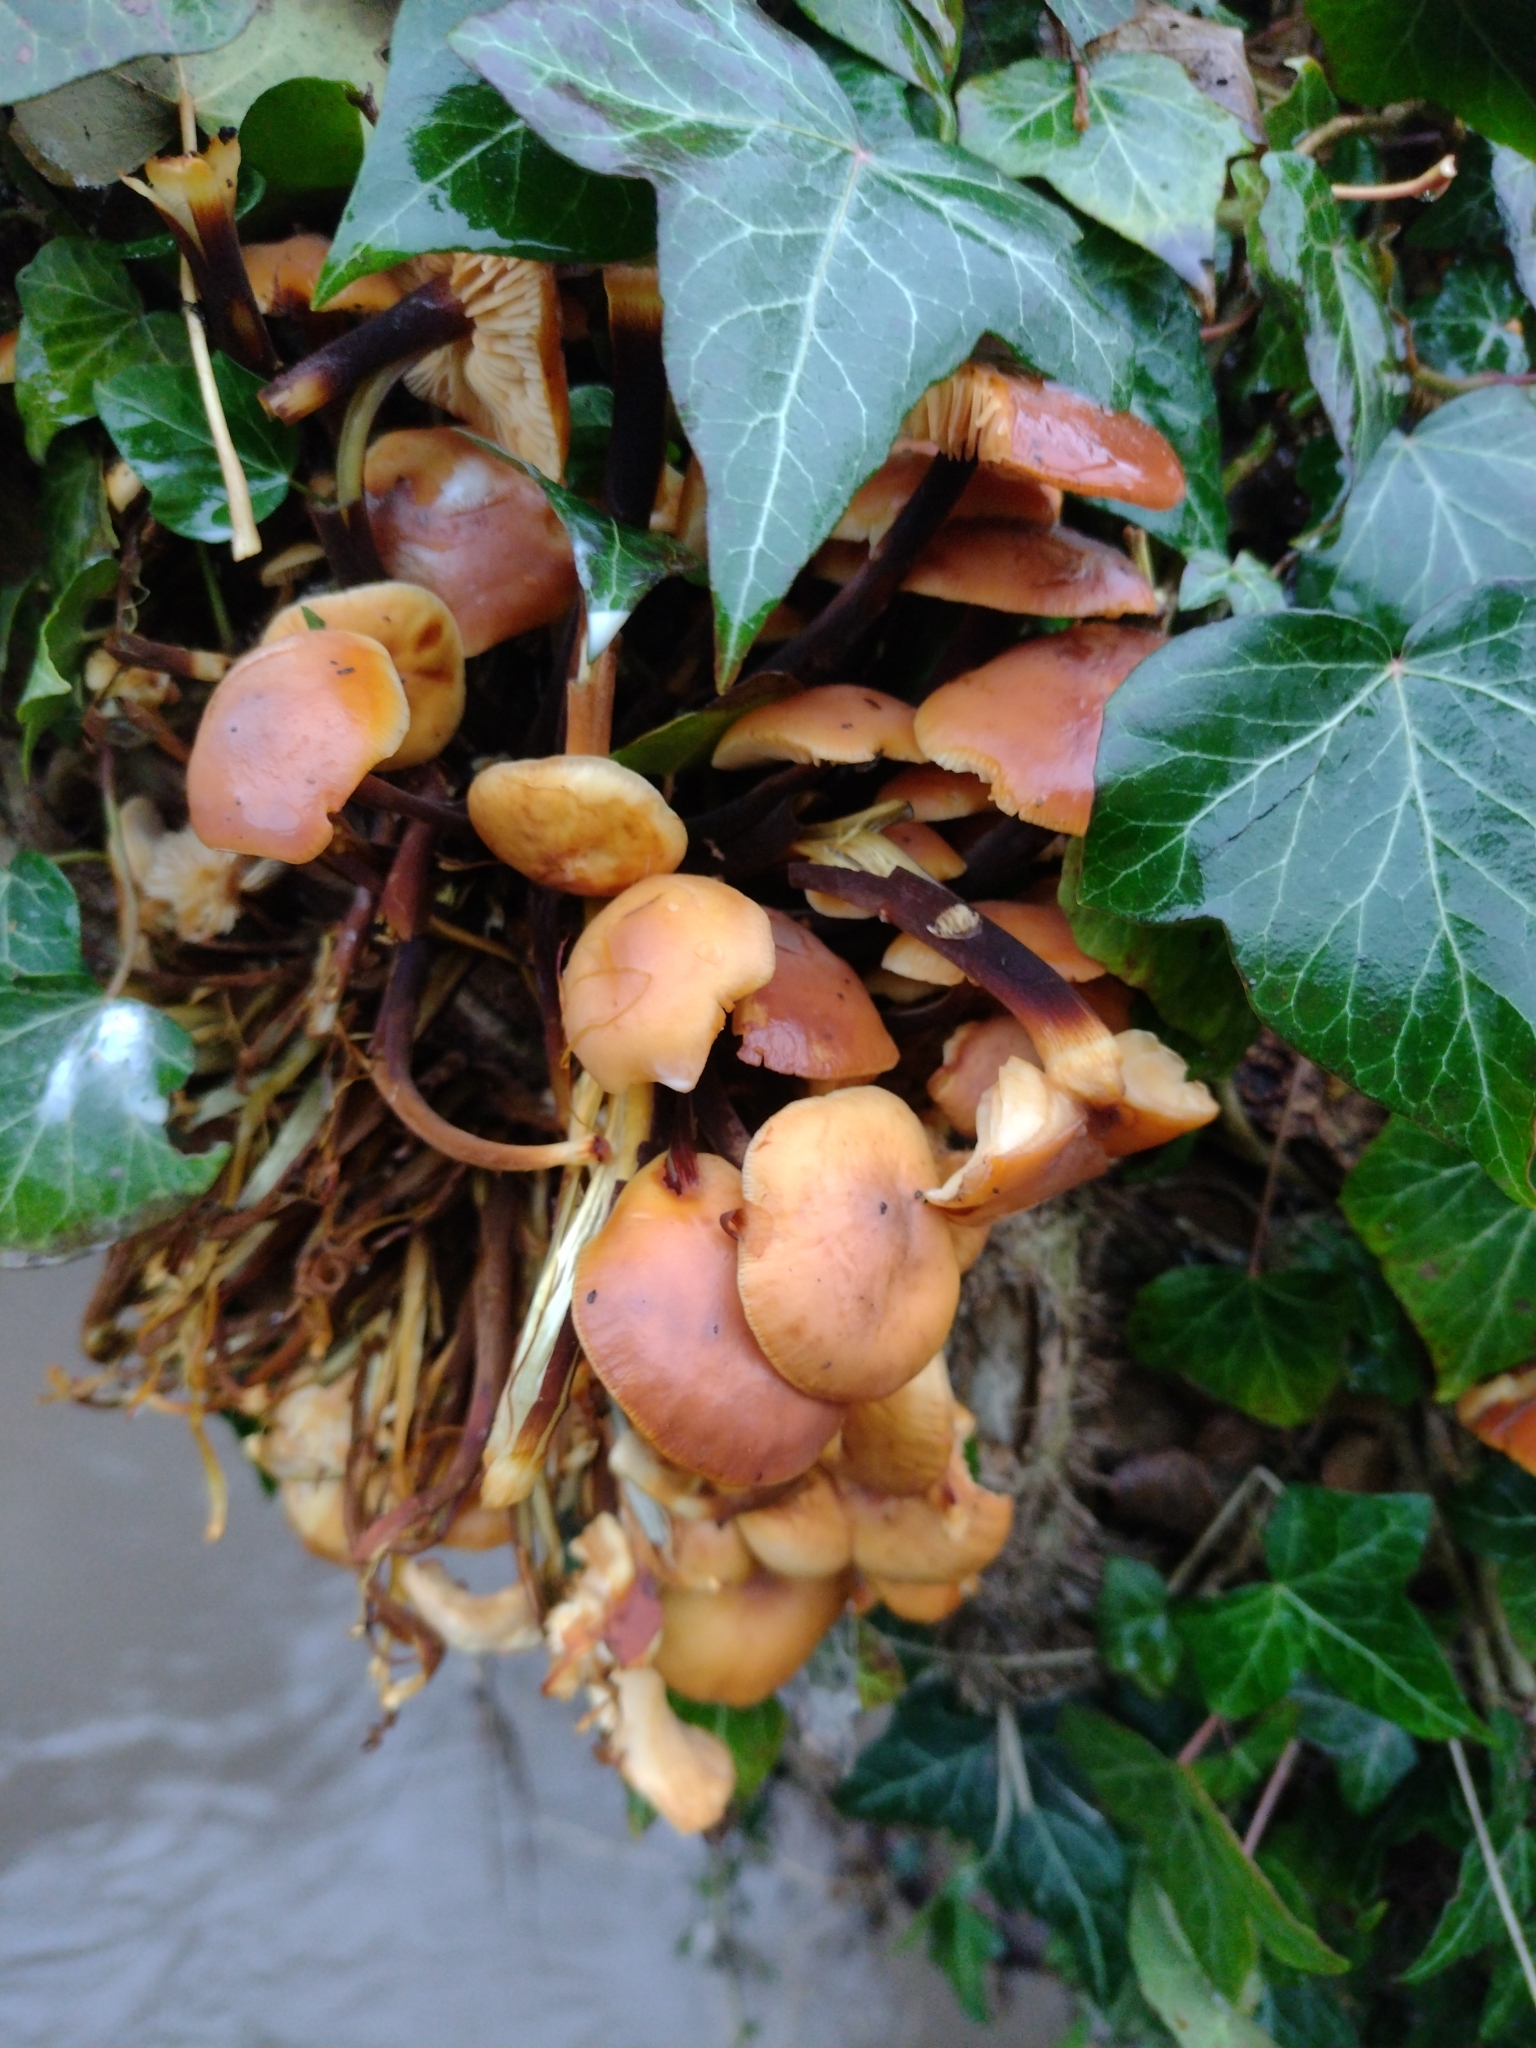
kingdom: Fungi
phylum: Basidiomycota
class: Agaricomycetes
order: Agaricales
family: Physalacriaceae
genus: Flammulina
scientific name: Flammulina
